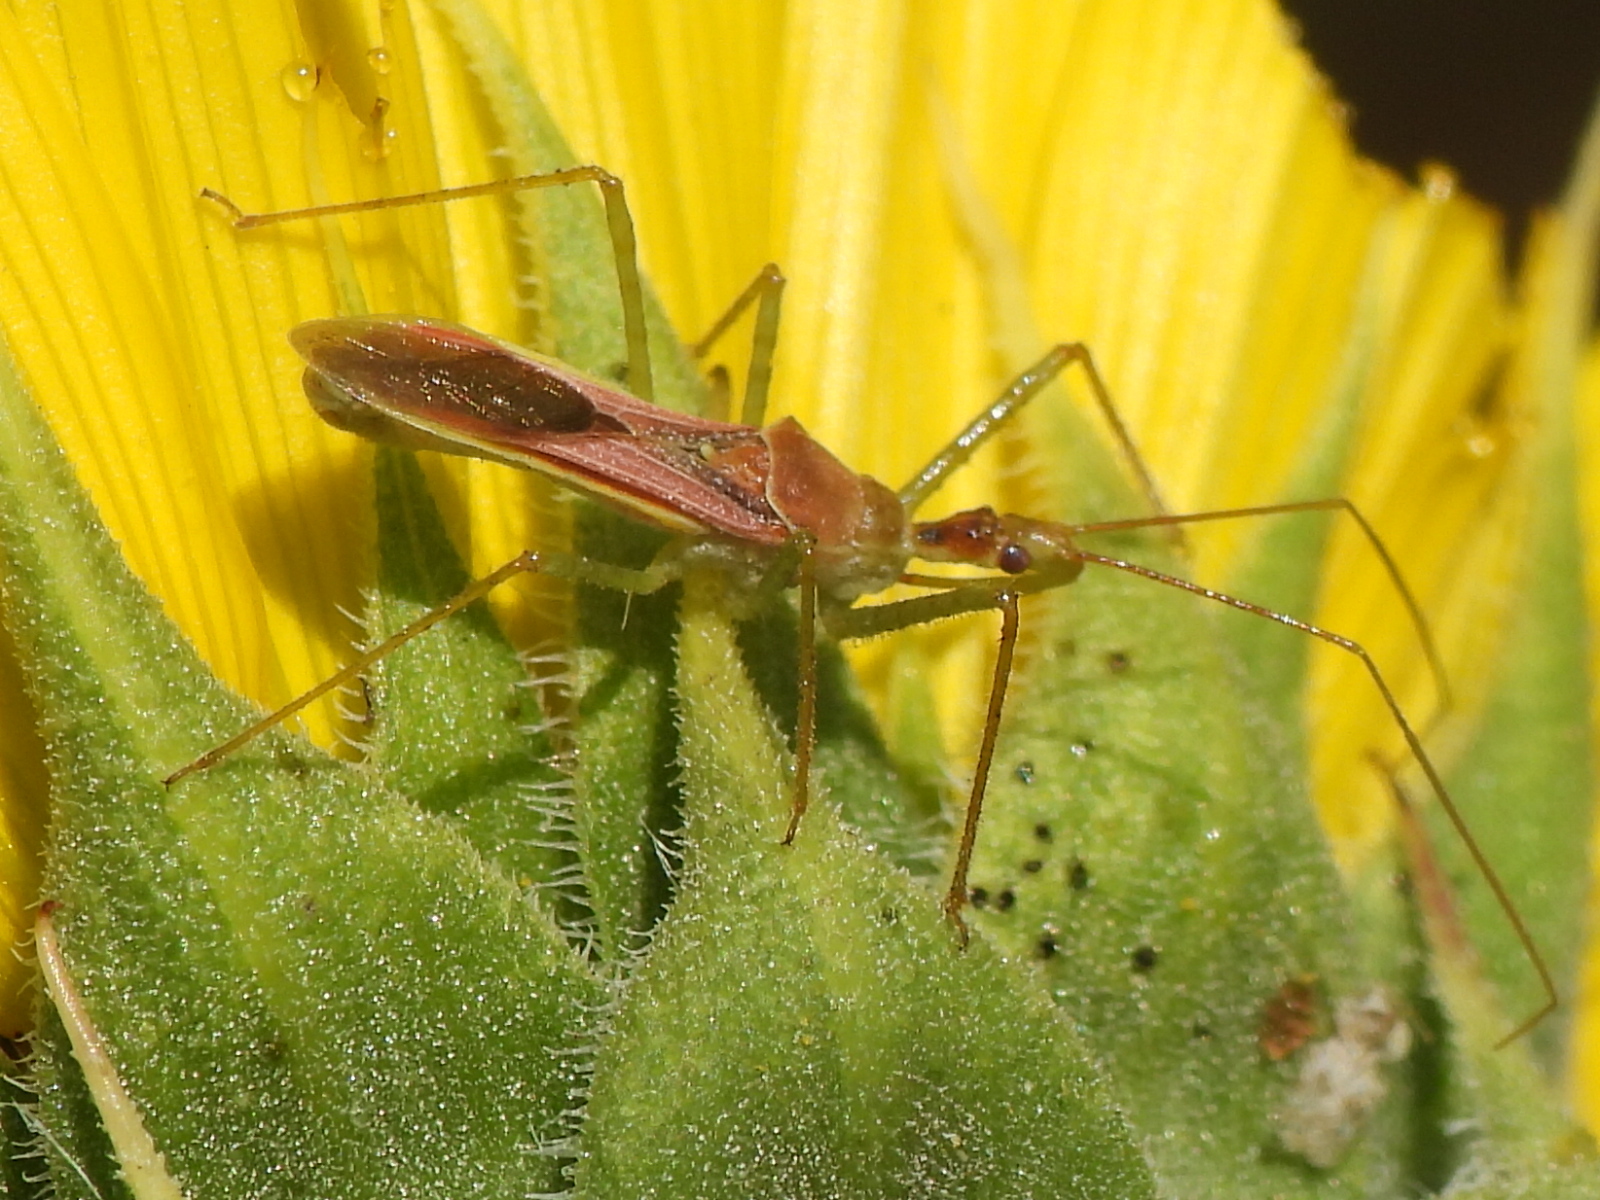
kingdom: Animalia
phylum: Arthropoda
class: Insecta
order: Hemiptera
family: Reduviidae
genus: Zelus
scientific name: Zelus renardii
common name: Assassin bug
